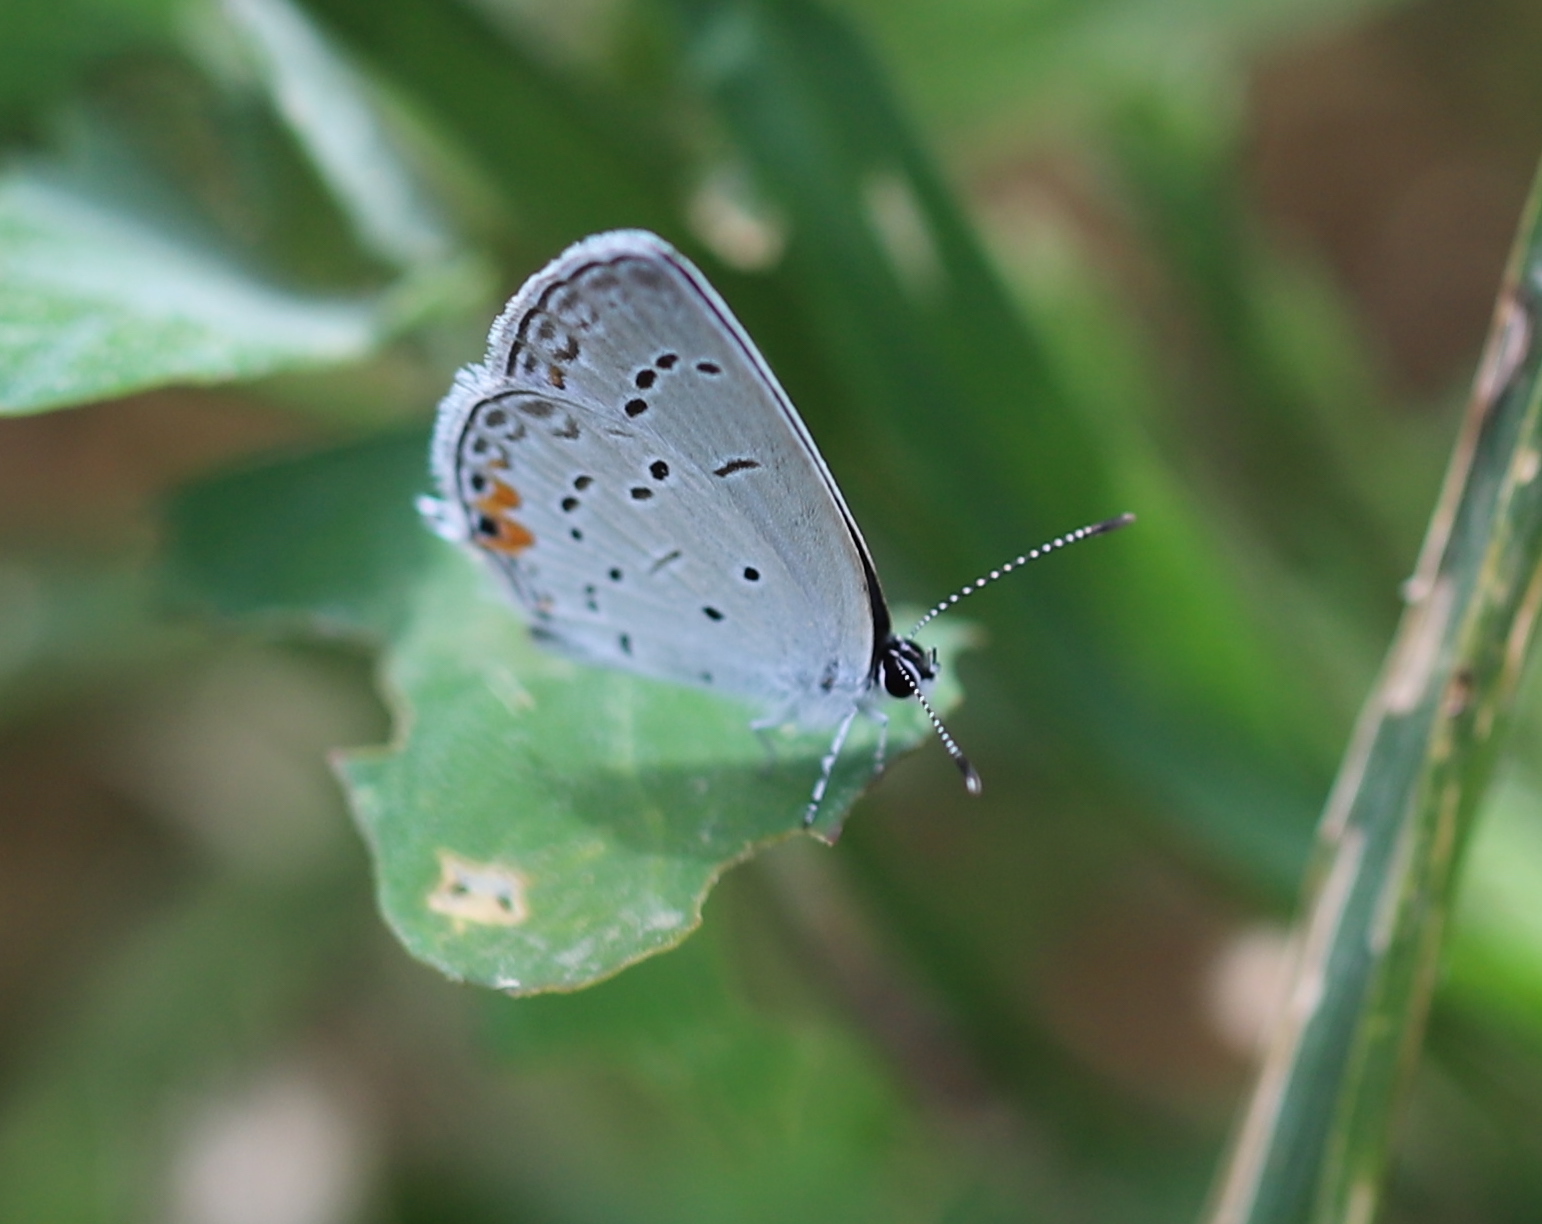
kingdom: Animalia
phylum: Arthropoda
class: Insecta
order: Lepidoptera
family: Lycaenidae
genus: Elkalyce
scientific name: Elkalyce comyntas
